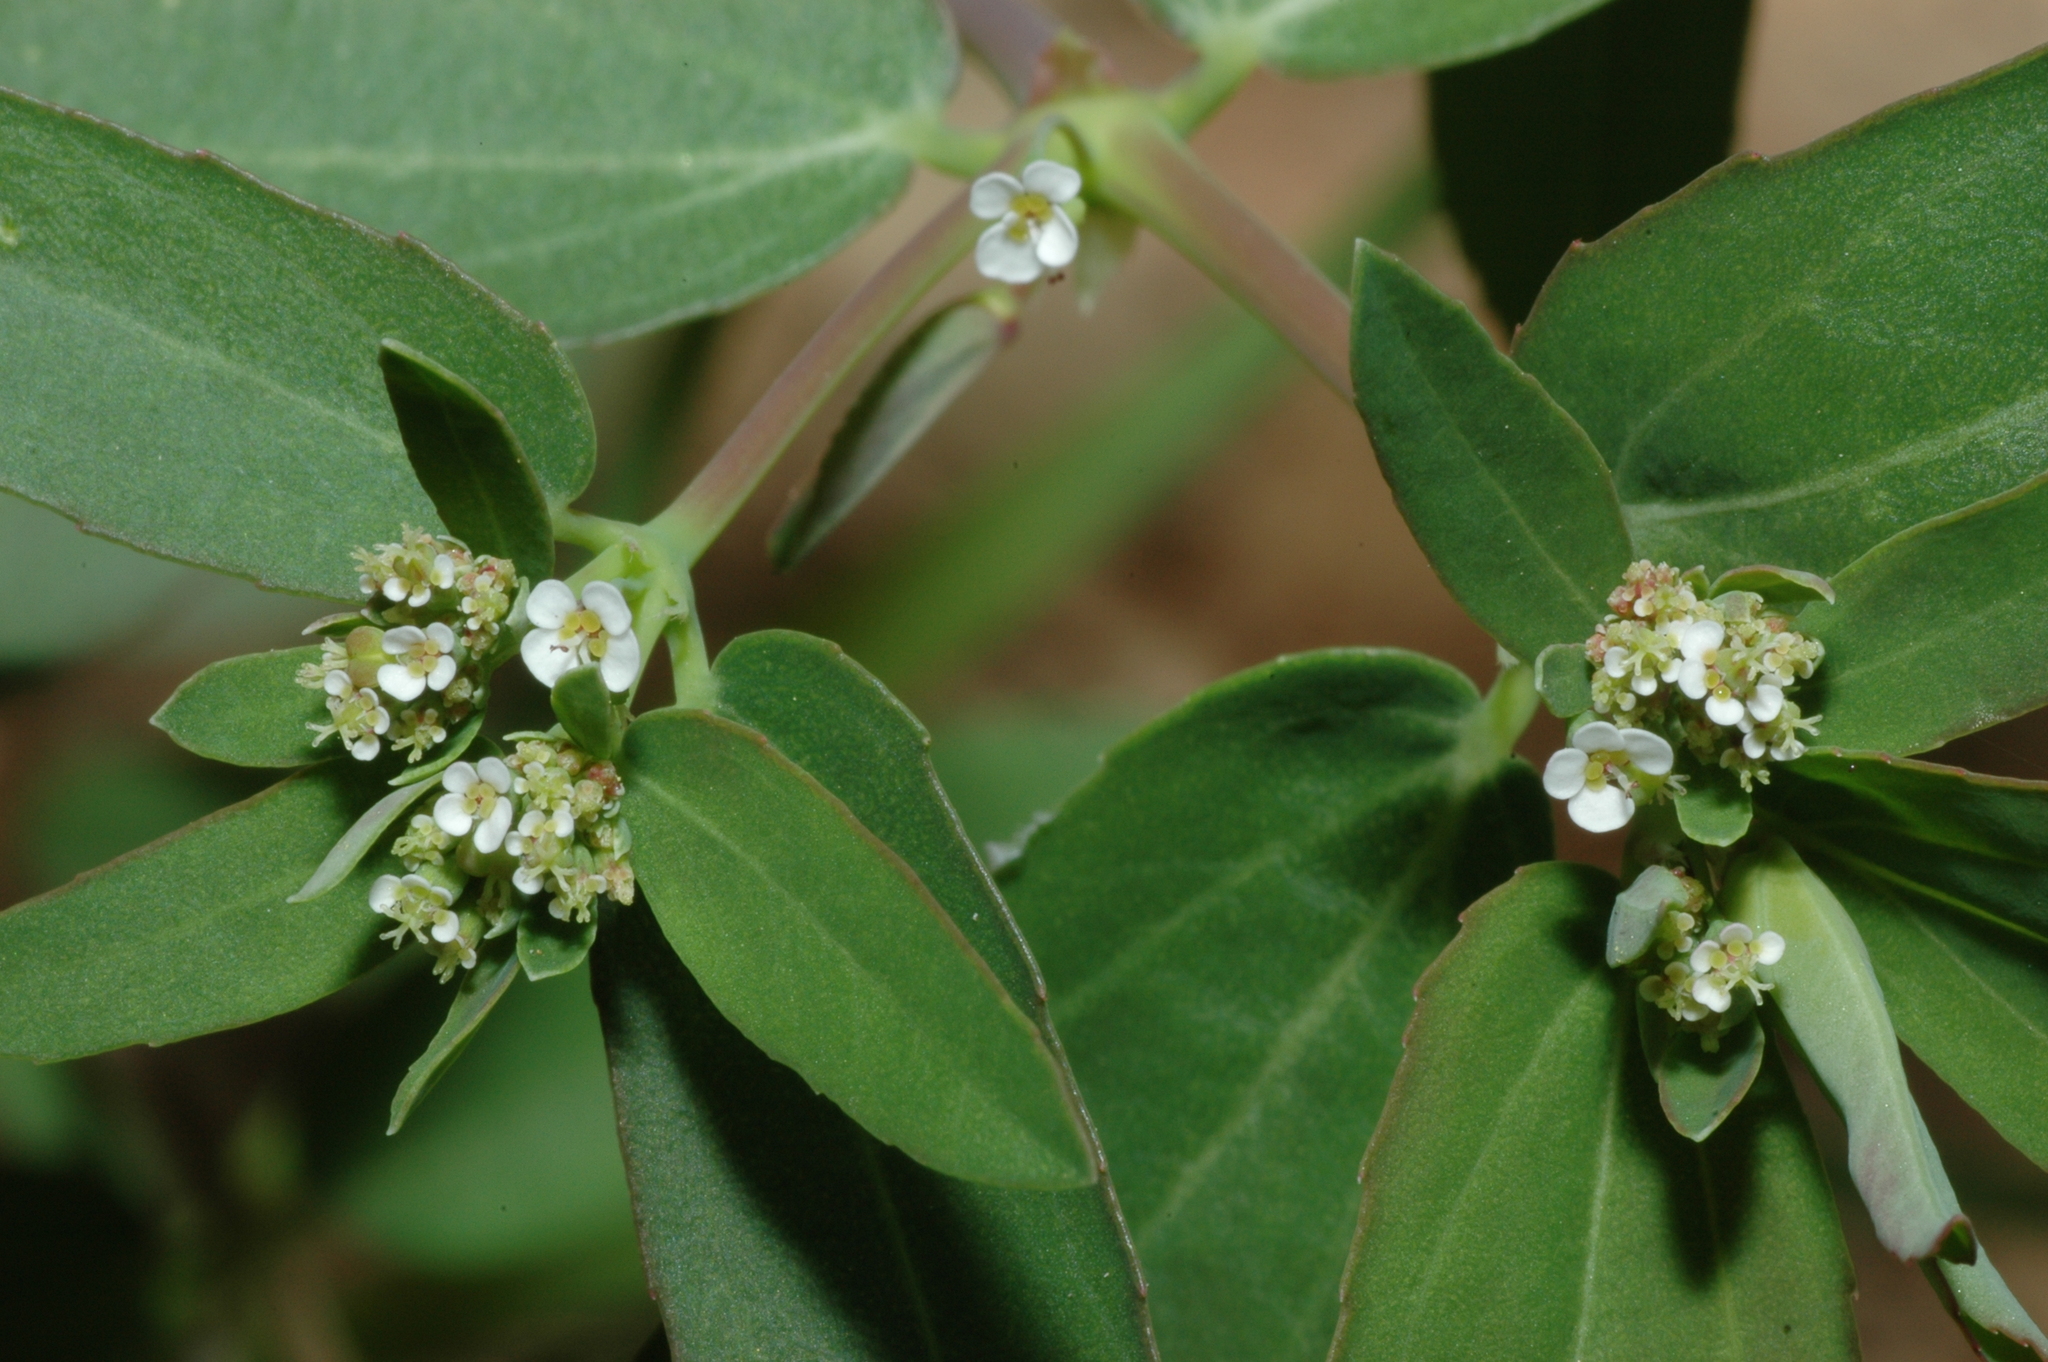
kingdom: Plantae
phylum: Tracheophyta
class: Magnoliopsida
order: Malpighiales
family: Euphorbiaceae
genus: Euphorbia
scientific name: Euphorbia hypericifolia
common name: Graceful sandmat
